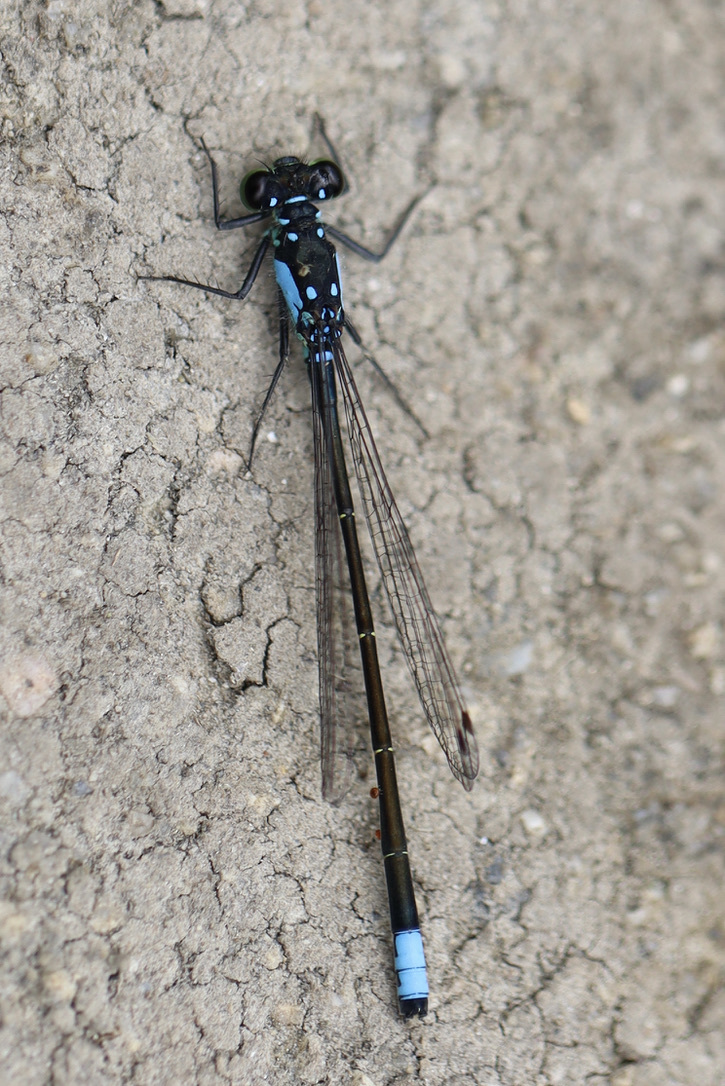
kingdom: Animalia
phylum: Arthropoda
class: Insecta
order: Odonata
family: Coenagrionidae
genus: Ischnura
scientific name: Ischnura cervula
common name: Pacific forktail
